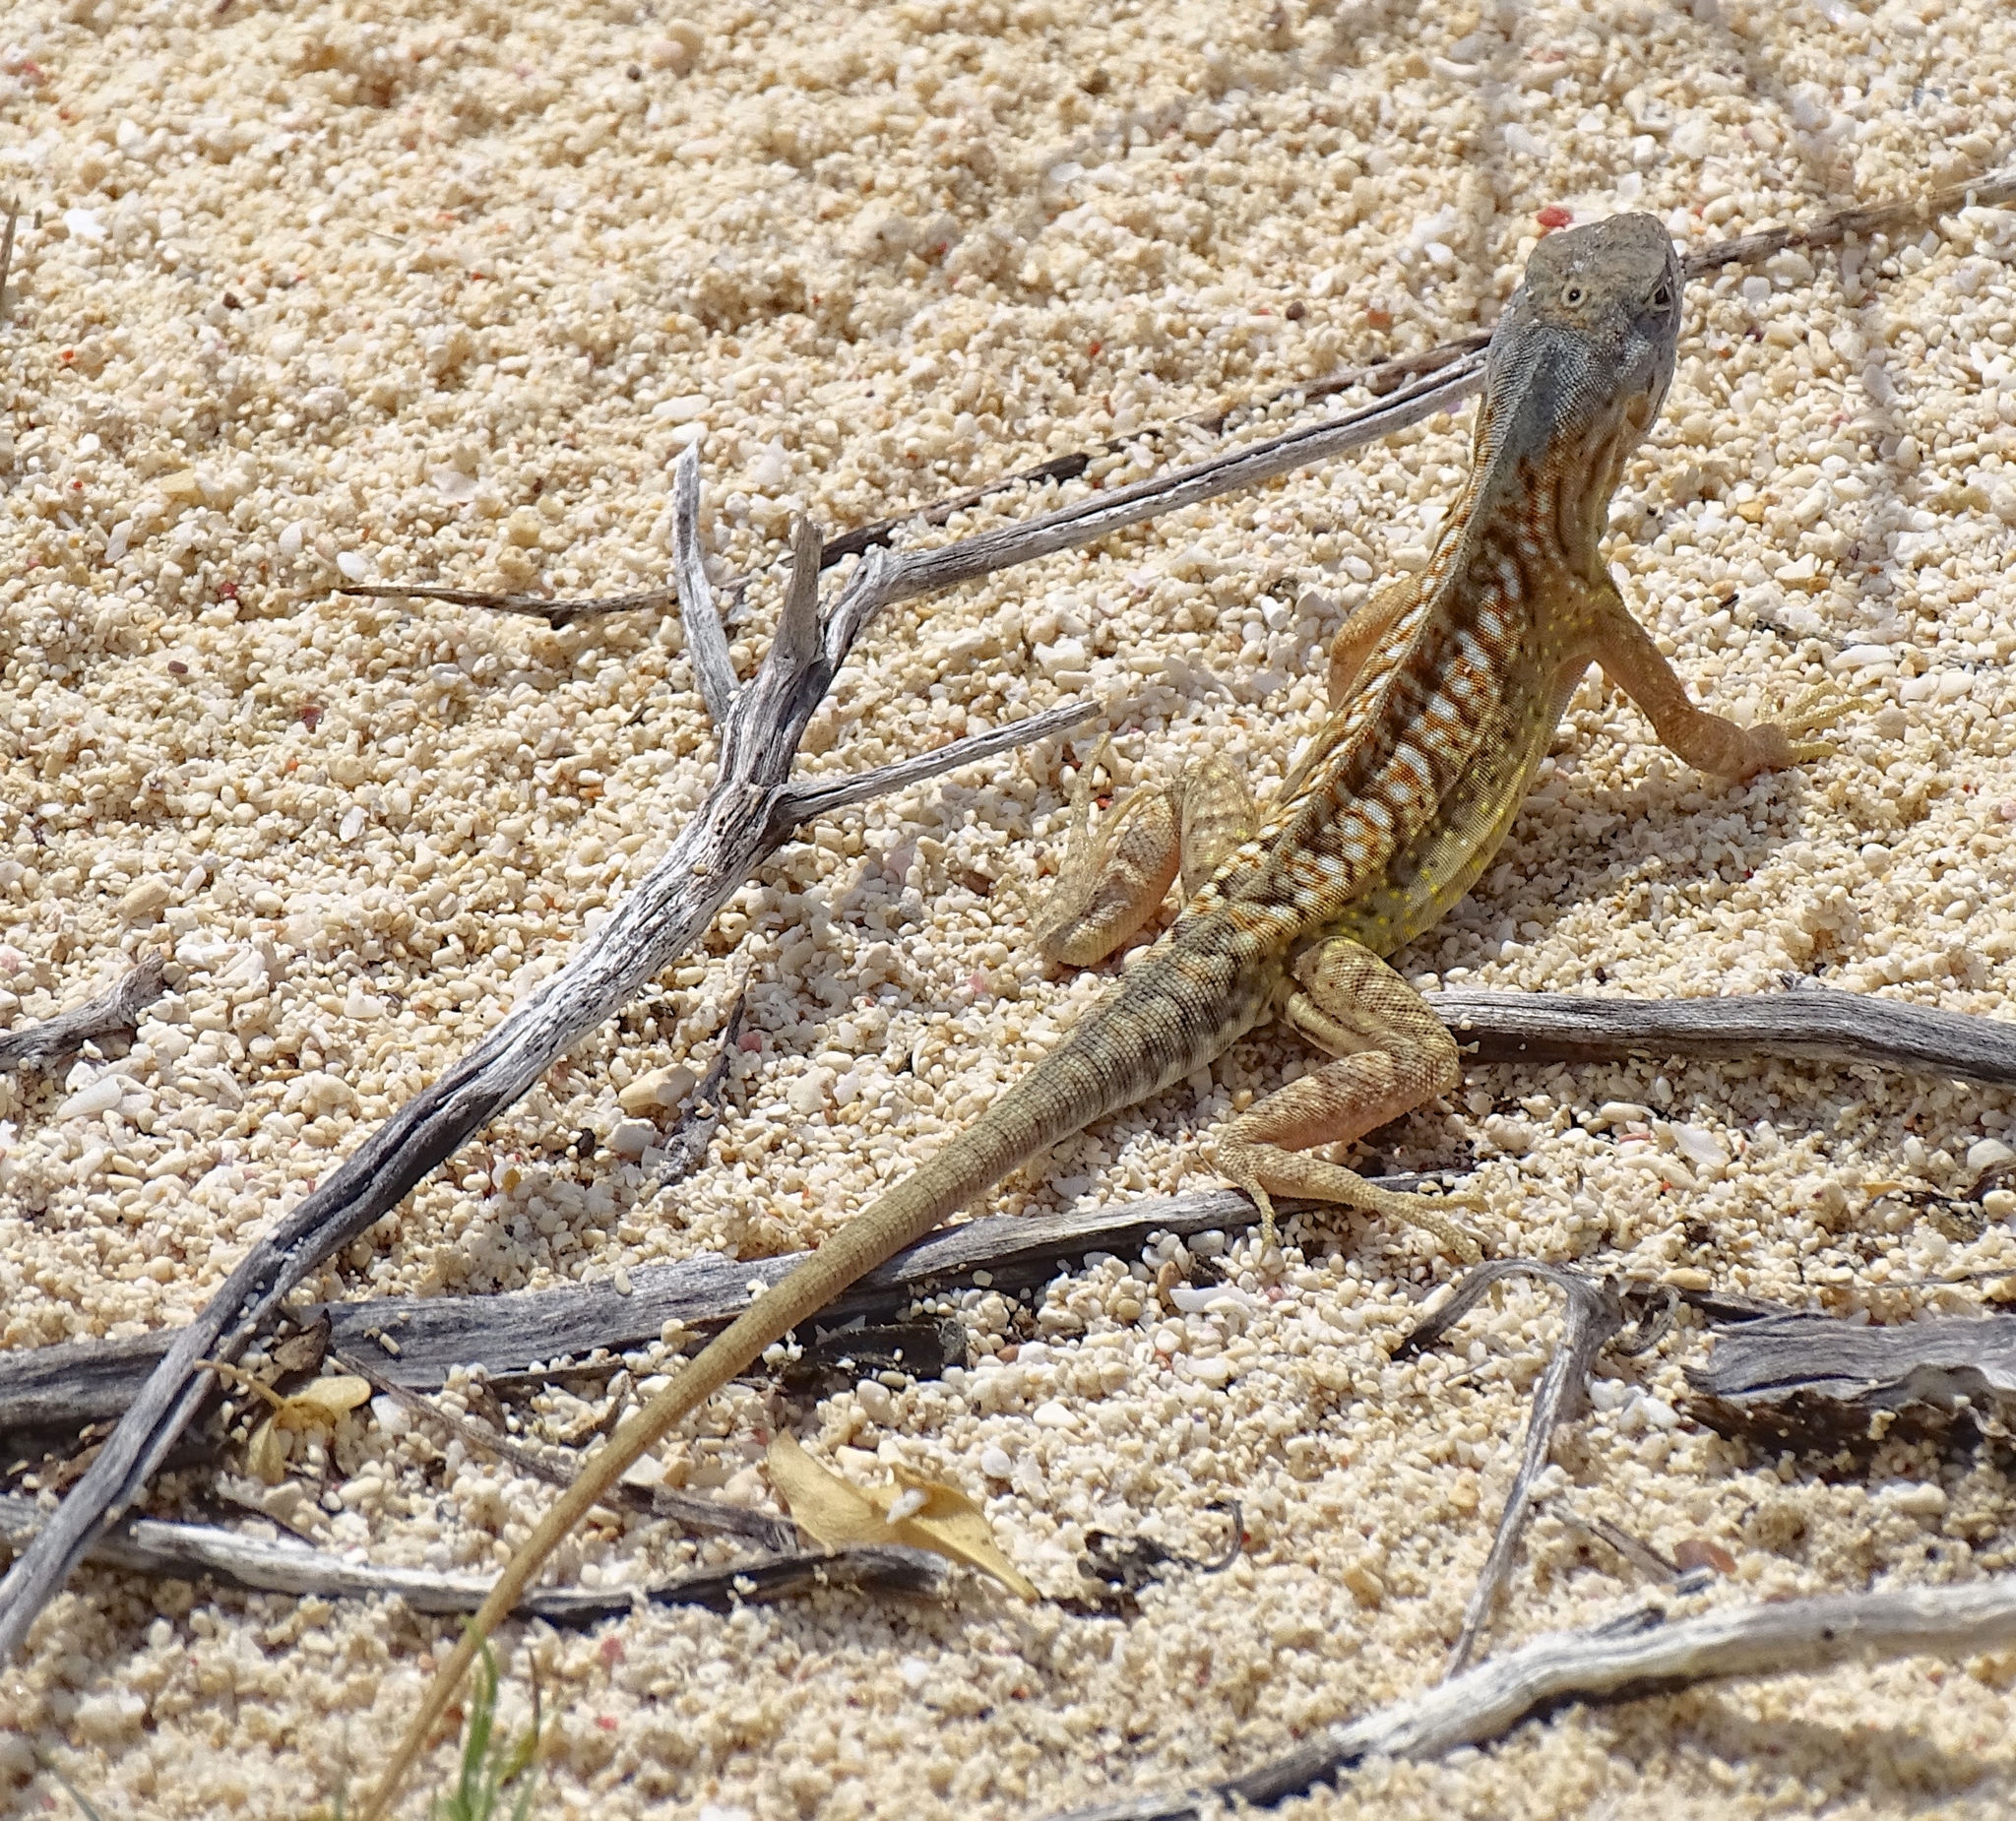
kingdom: Animalia
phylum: Chordata
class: Squamata
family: Opluridae
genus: Chalarodon
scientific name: Chalarodon madagascariensis
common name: Madagascar iguana
